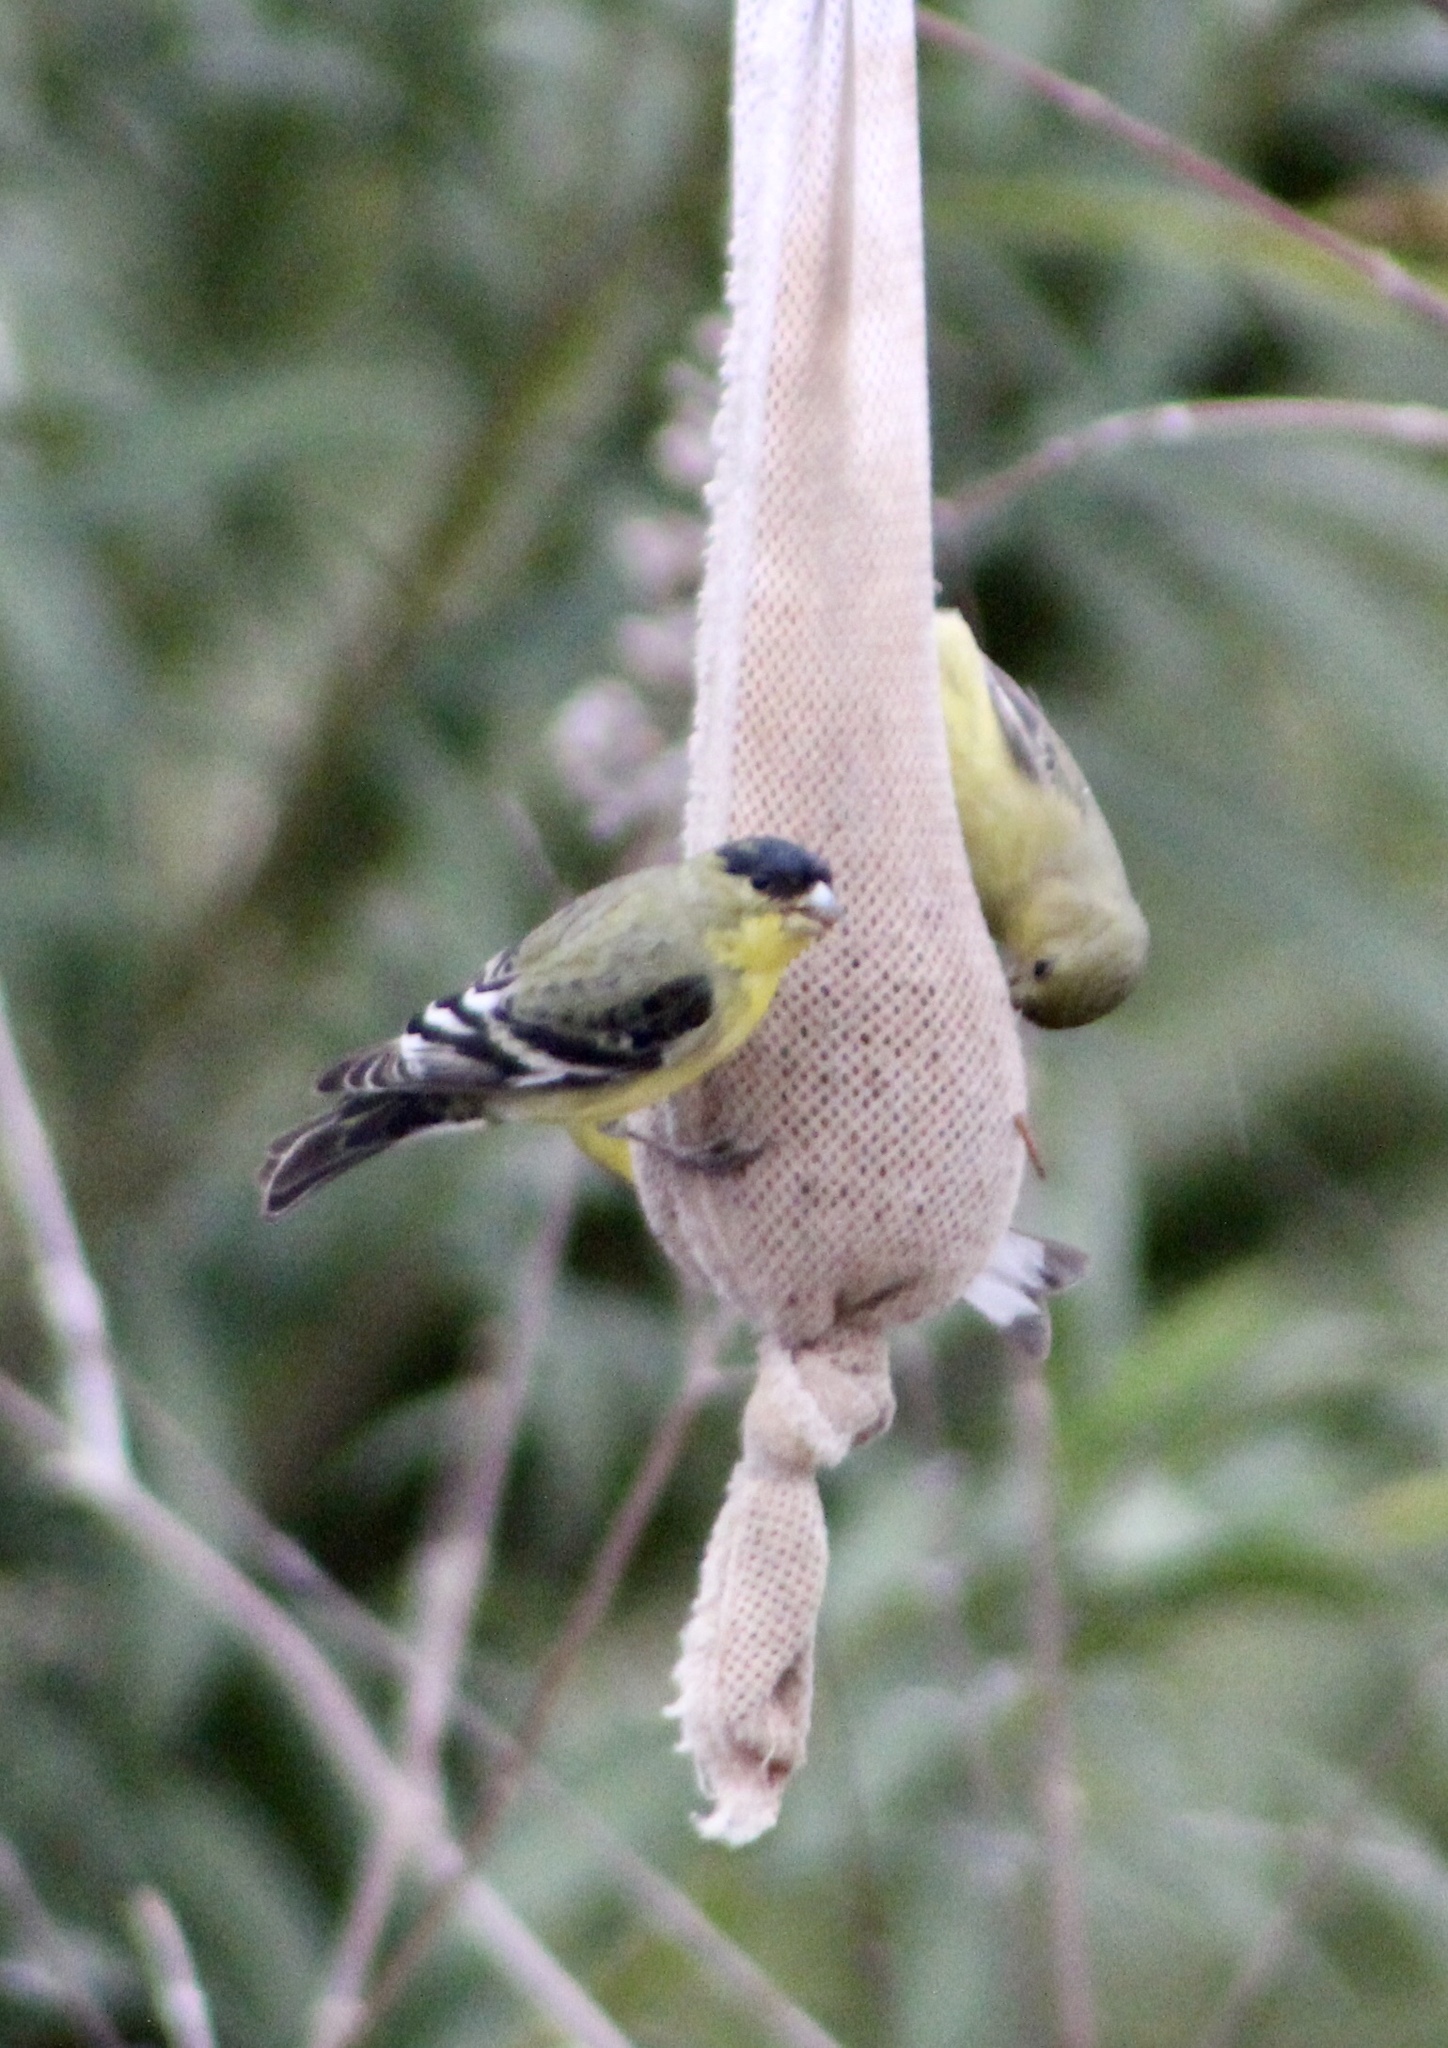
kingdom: Animalia
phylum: Chordata
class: Aves
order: Passeriformes
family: Fringillidae
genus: Spinus
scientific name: Spinus psaltria
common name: Lesser goldfinch
